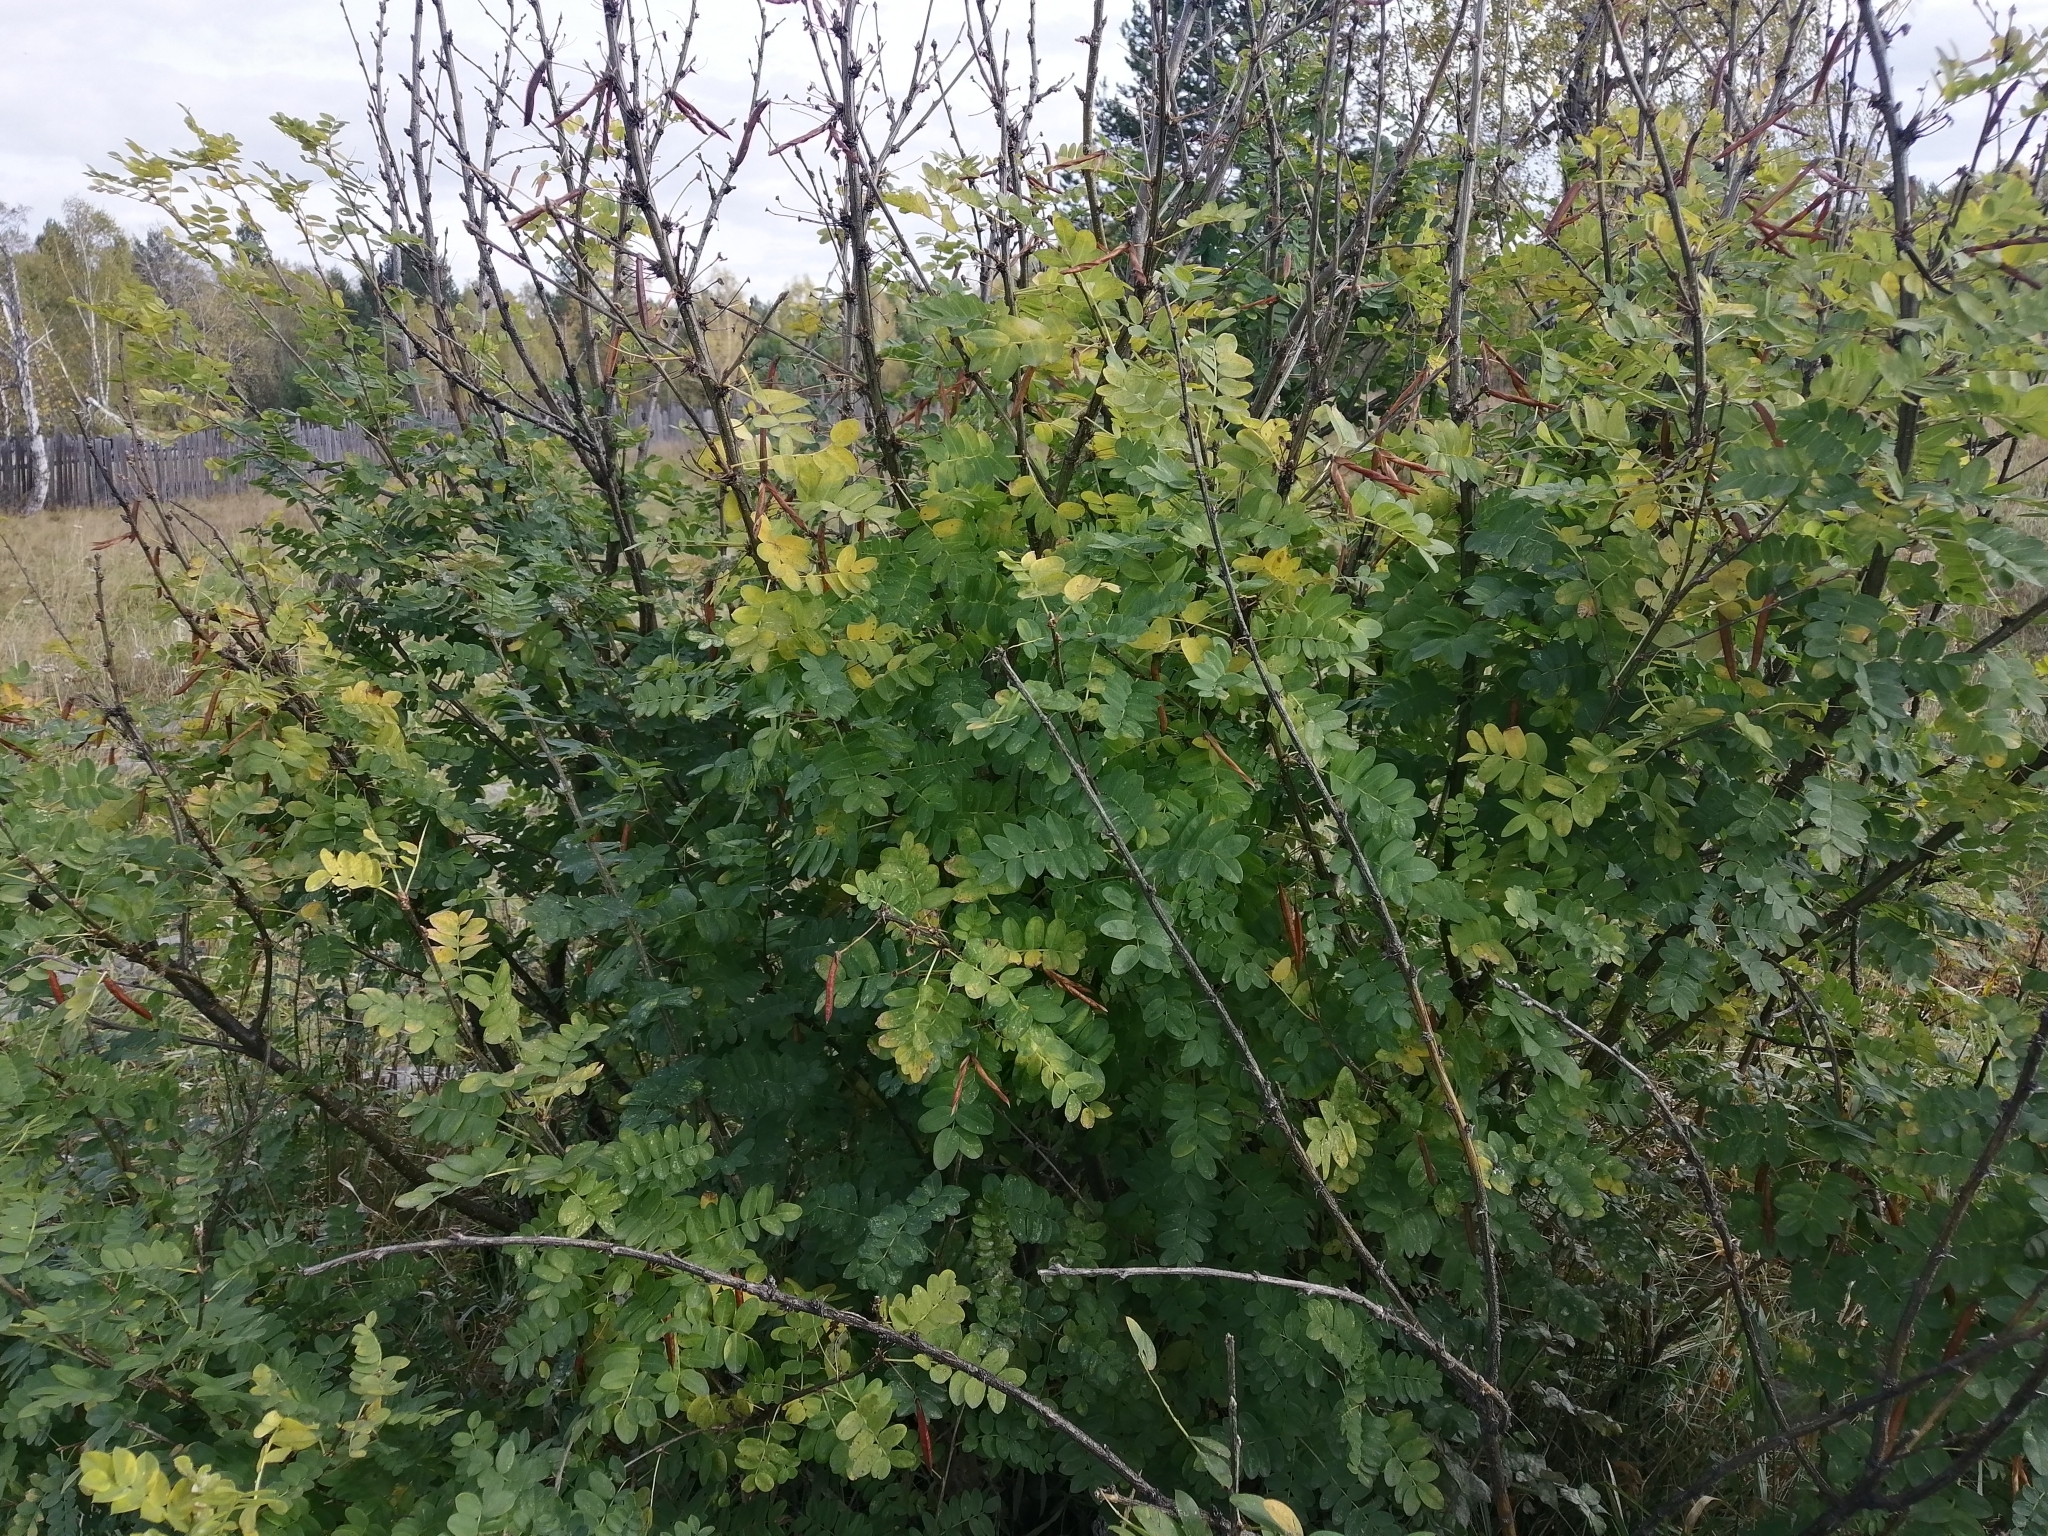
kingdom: Plantae
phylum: Tracheophyta
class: Magnoliopsida
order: Fabales
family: Fabaceae
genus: Caragana
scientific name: Caragana arborescens
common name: Siberian peashrub
